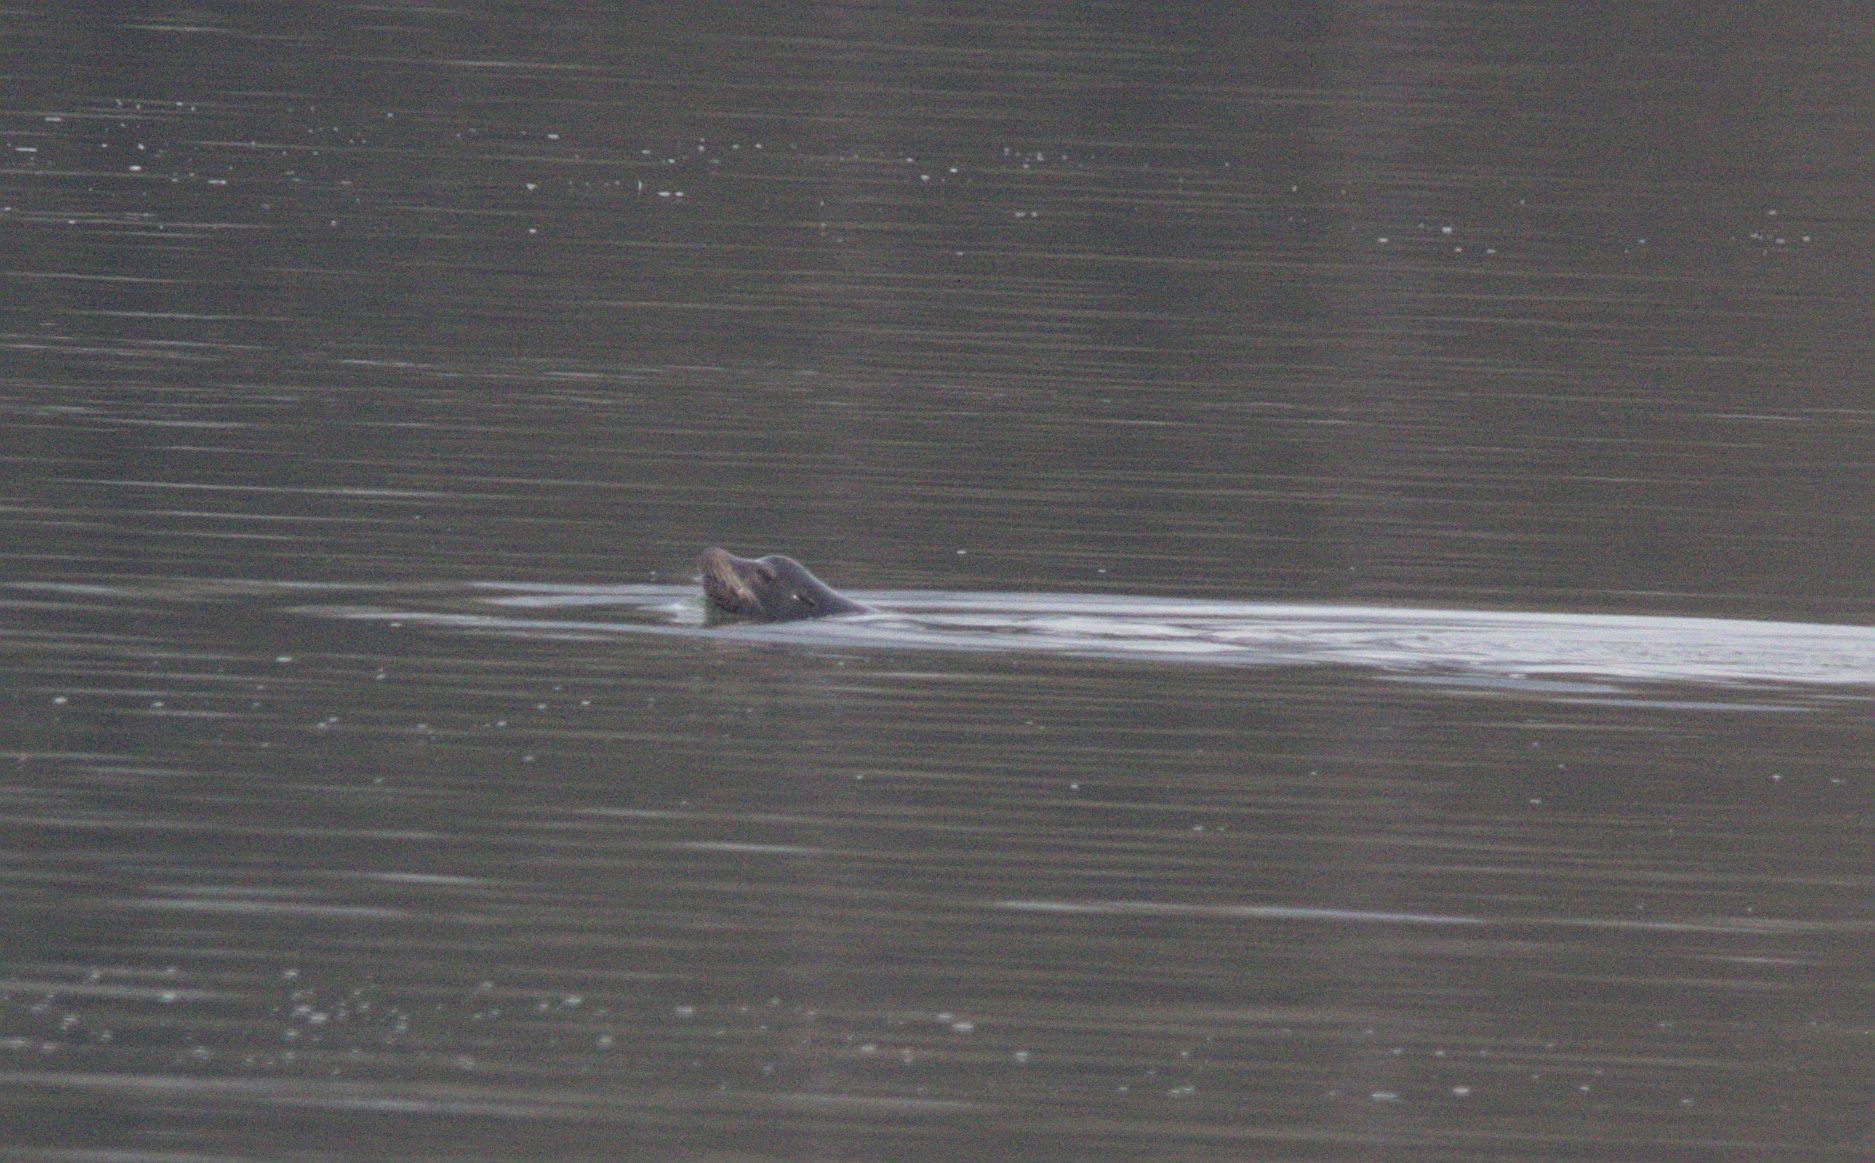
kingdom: Animalia
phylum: Chordata
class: Mammalia
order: Carnivora
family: Otariidae
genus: Zalophus
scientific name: Zalophus californianus
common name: California sea lion
